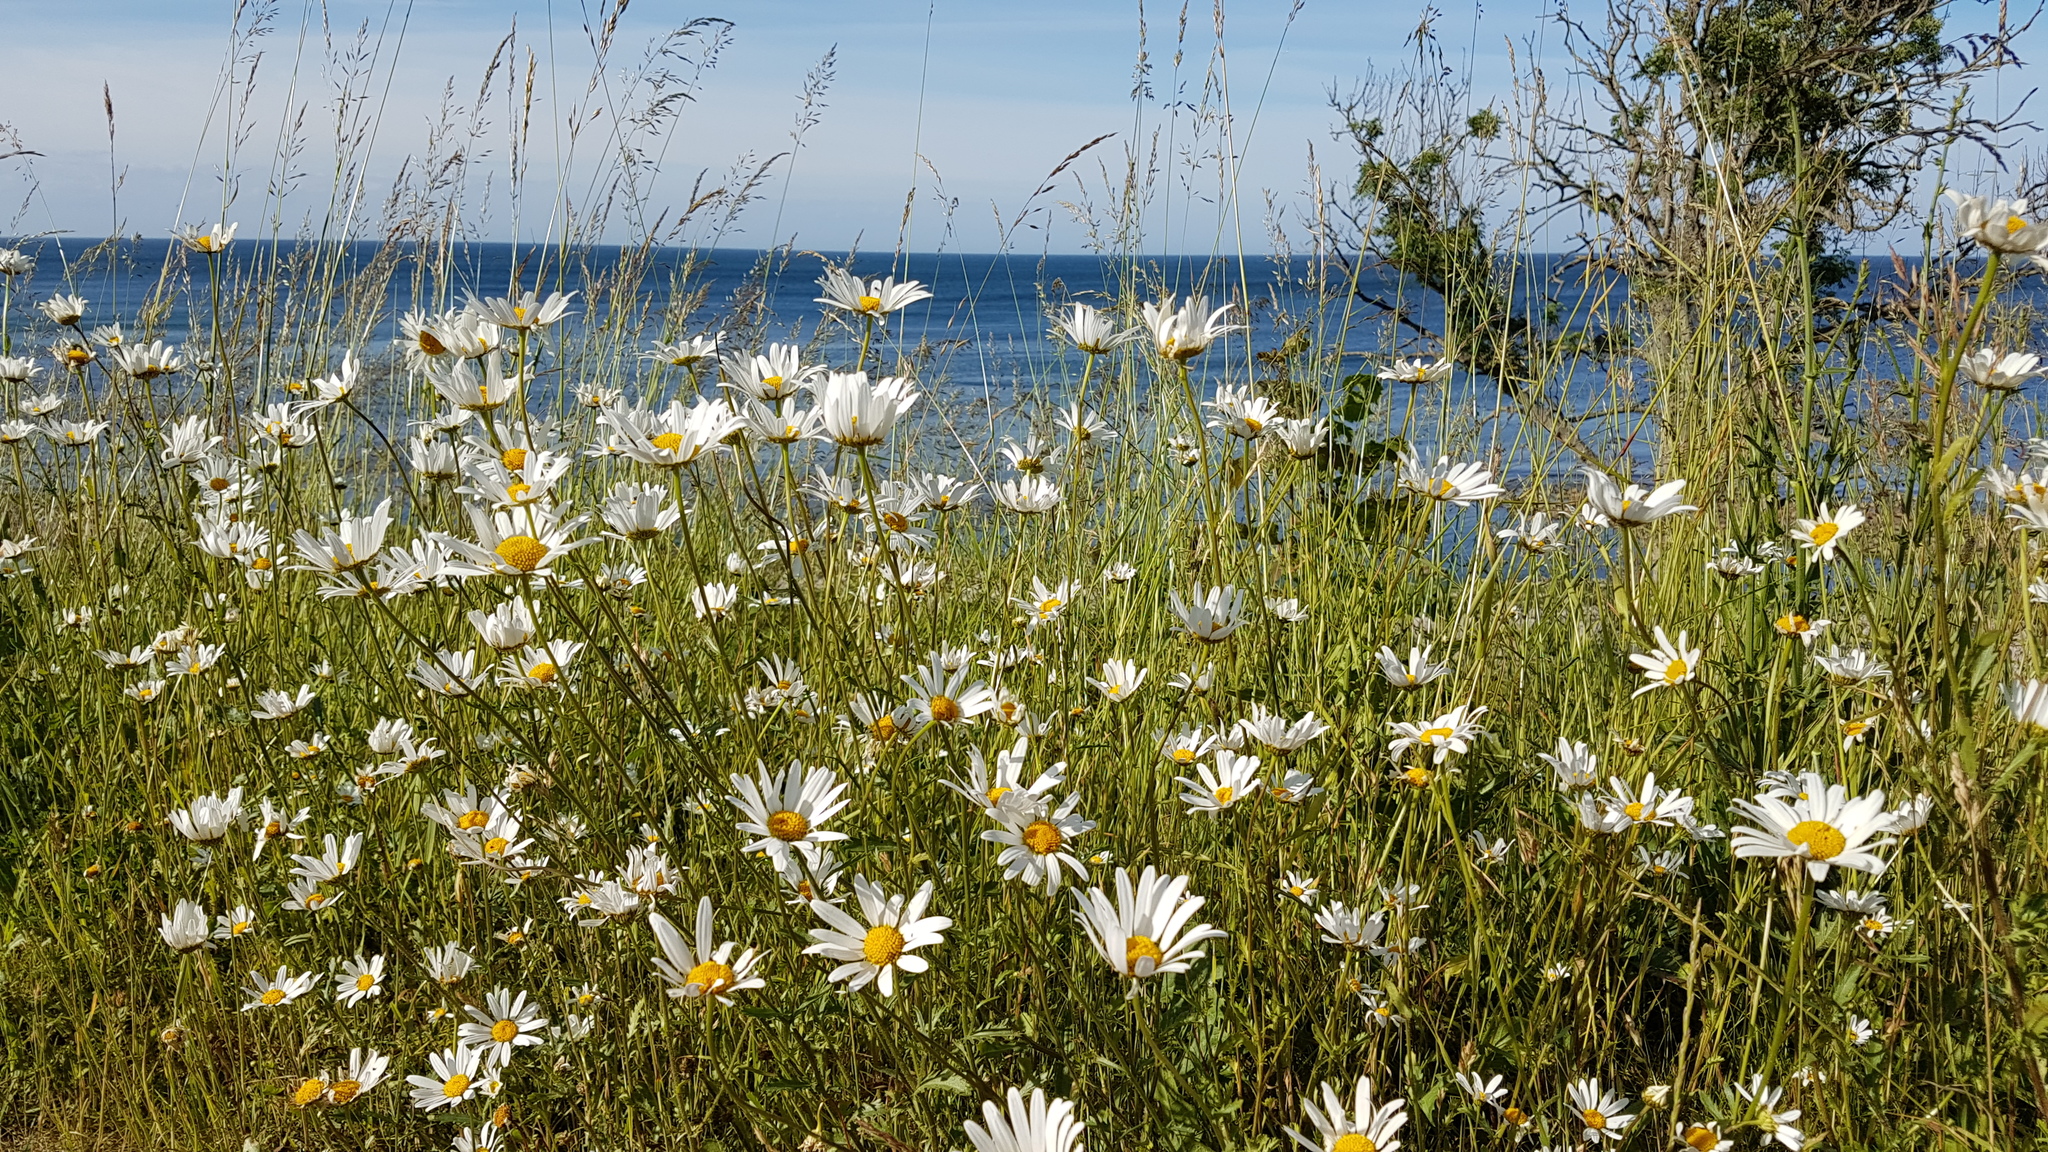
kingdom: Plantae
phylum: Tracheophyta
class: Magnoliopsida
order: Asterales
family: Asteraceae
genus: Leucanthemum
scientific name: Leucanthemum vulgare
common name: Oxeye daisy
